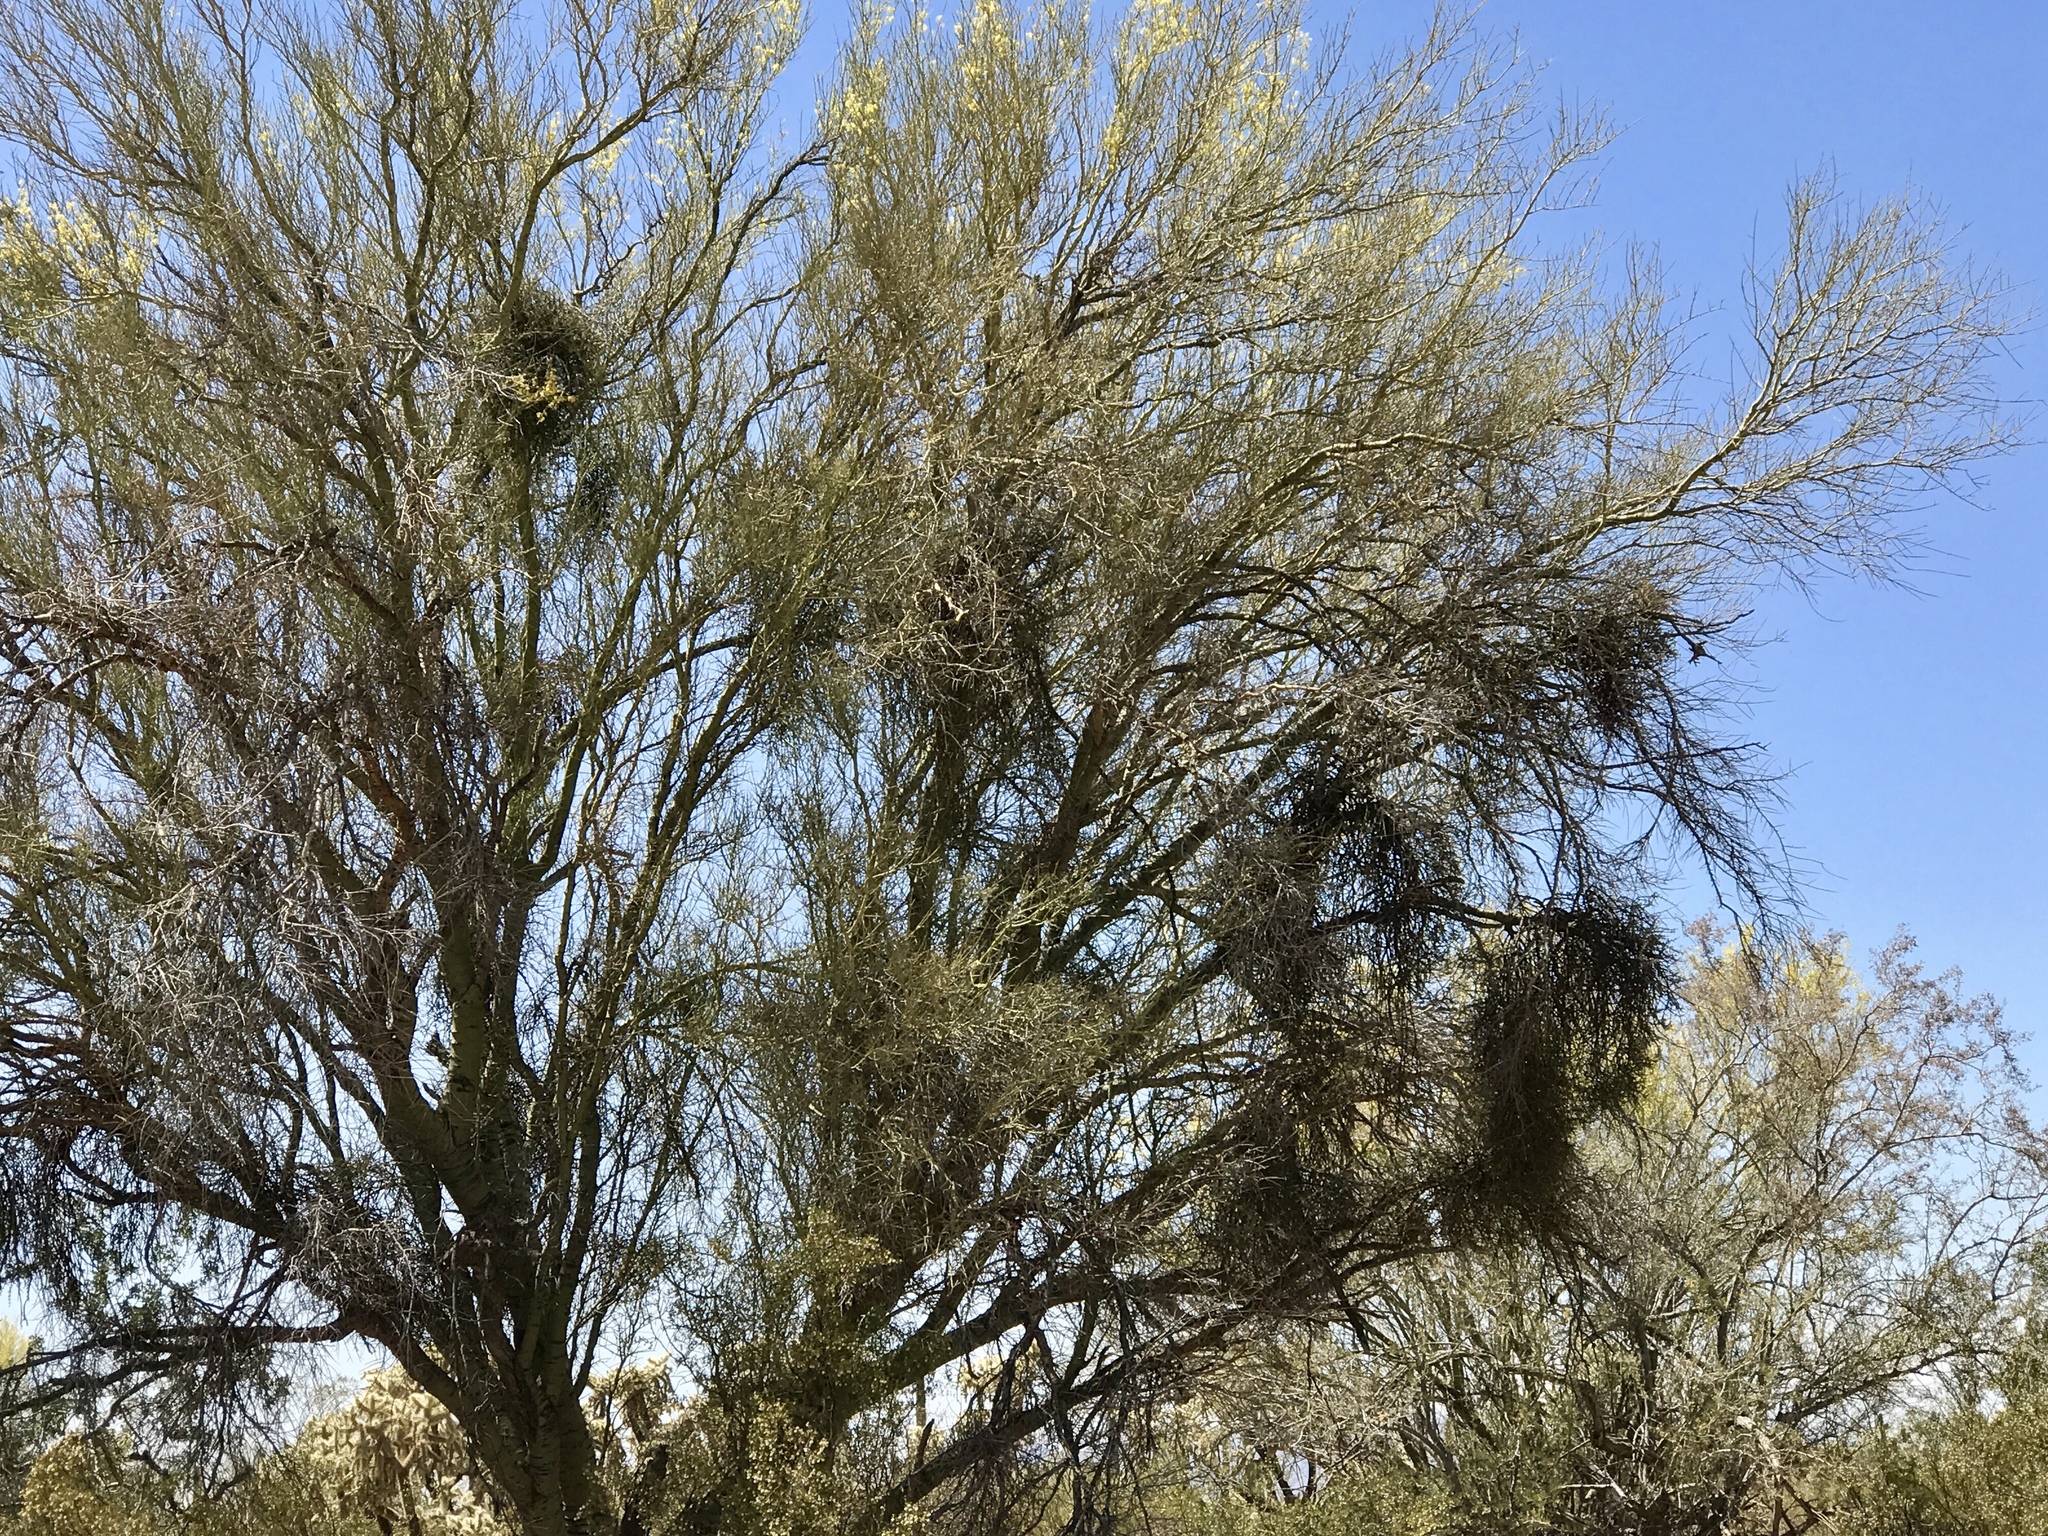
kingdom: Plantae
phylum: Tracheophyta
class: Magnoliopsida
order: Fabales
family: Fabaceae
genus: Parkinsonia
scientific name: Parkinsonia microphylla
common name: Yellow paloverde
